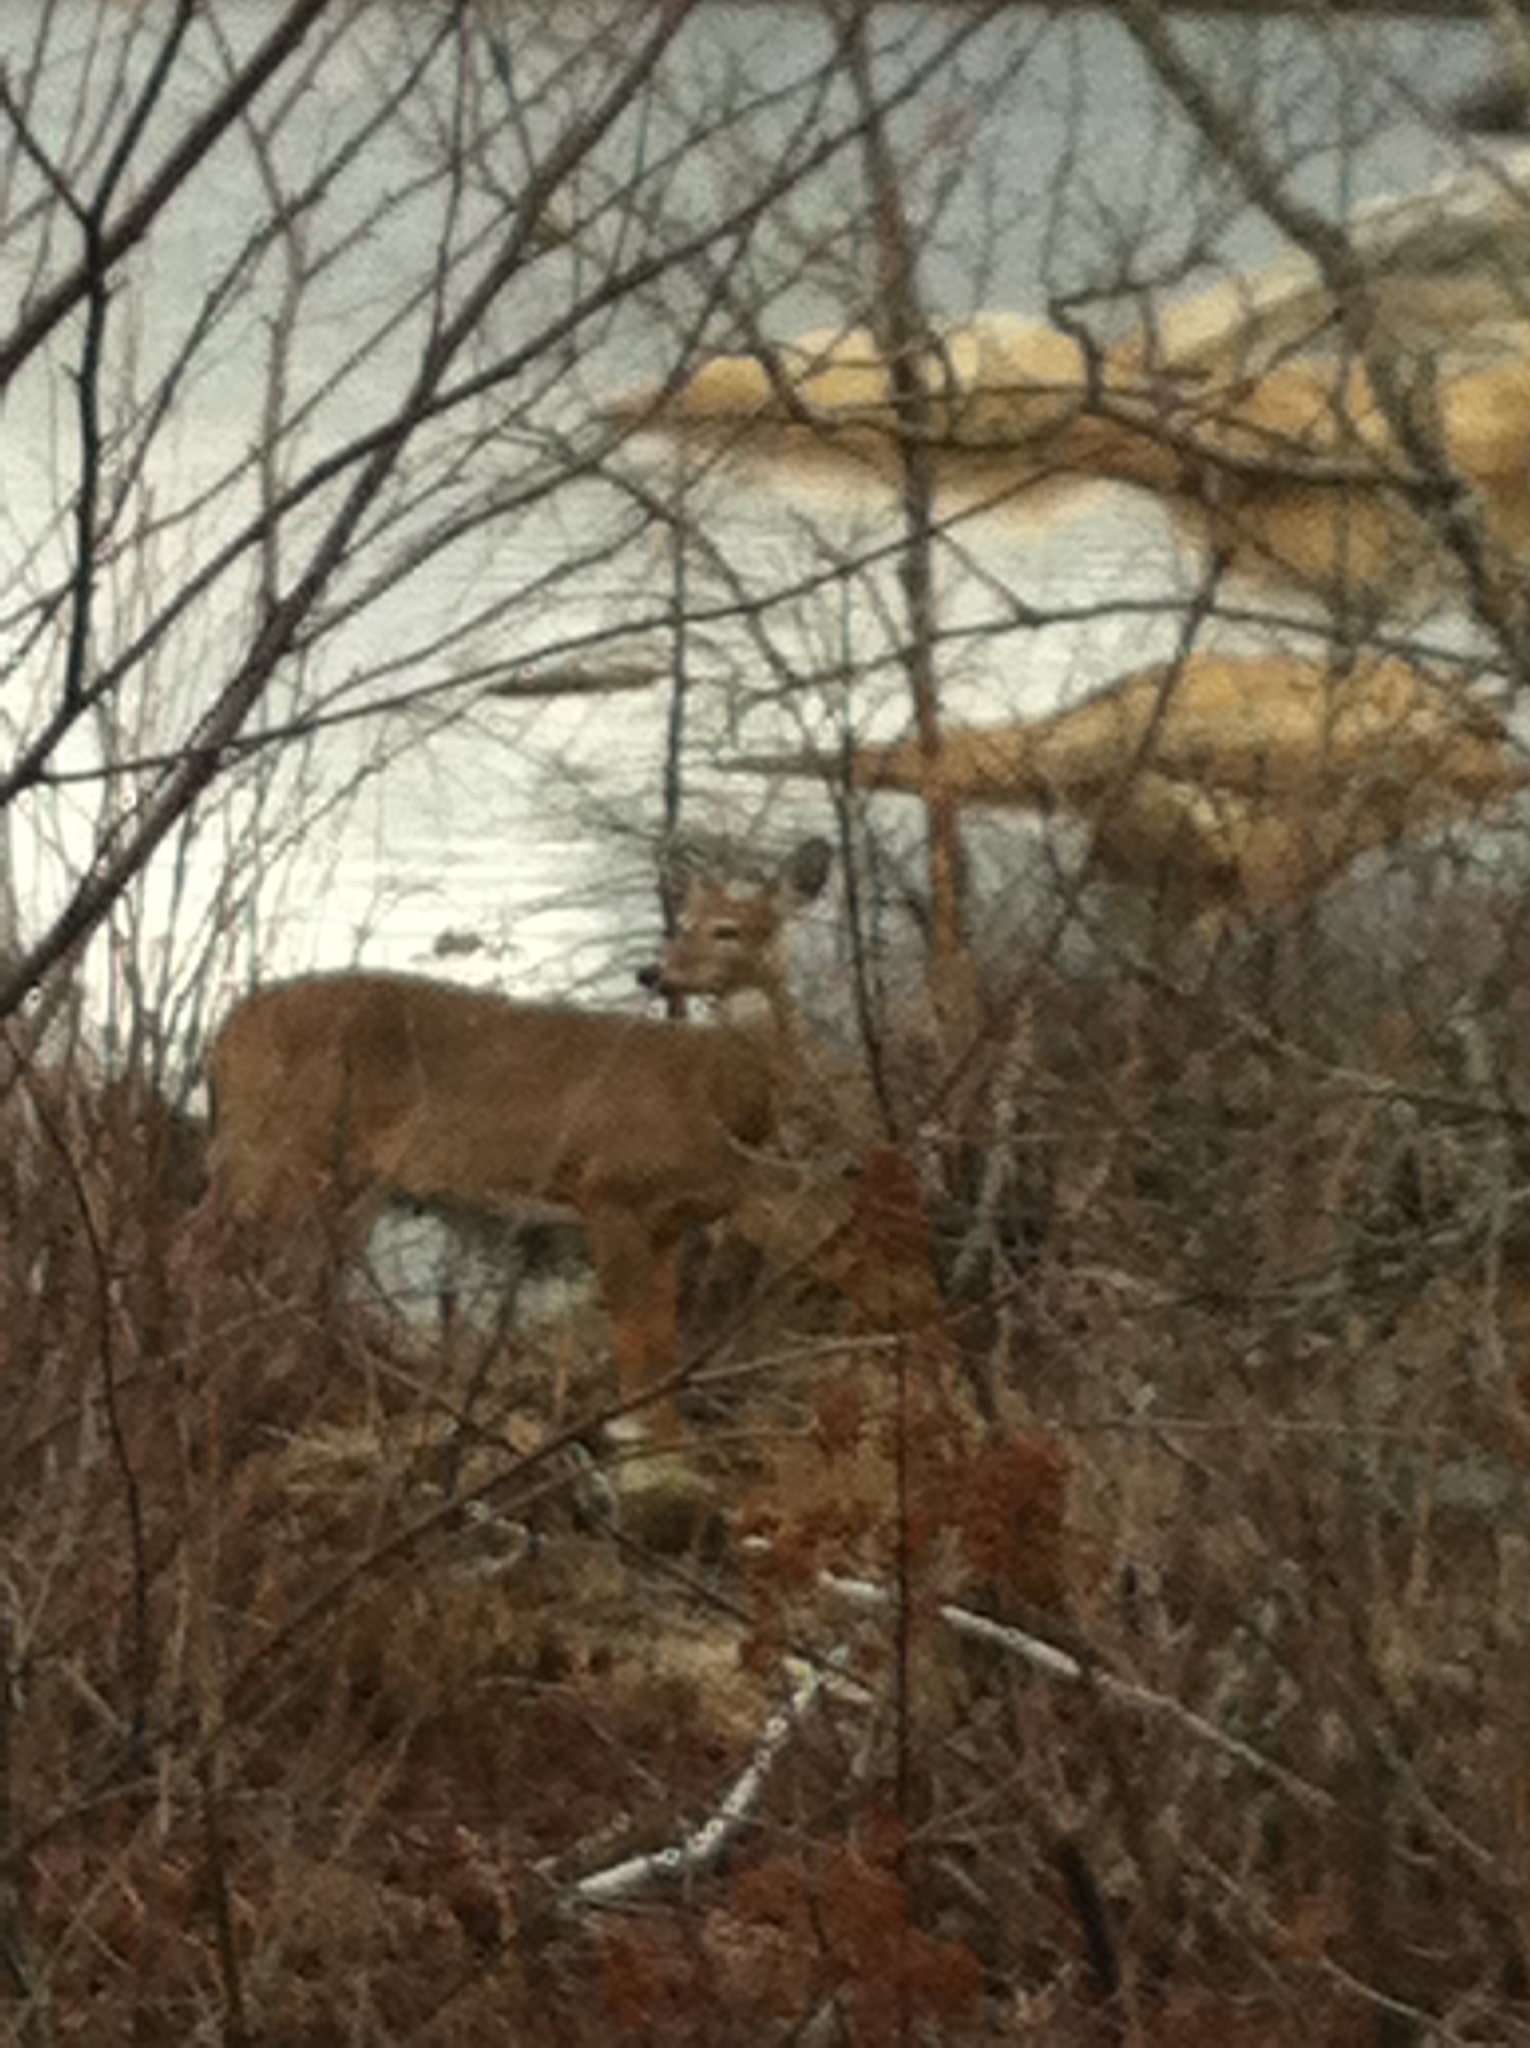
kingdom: Animalia
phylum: Chordata
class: Mammalia
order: Artiodactyla
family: Cervidae
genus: Odocoileus
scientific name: Odocoileus virginianus
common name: White-tailed deer
